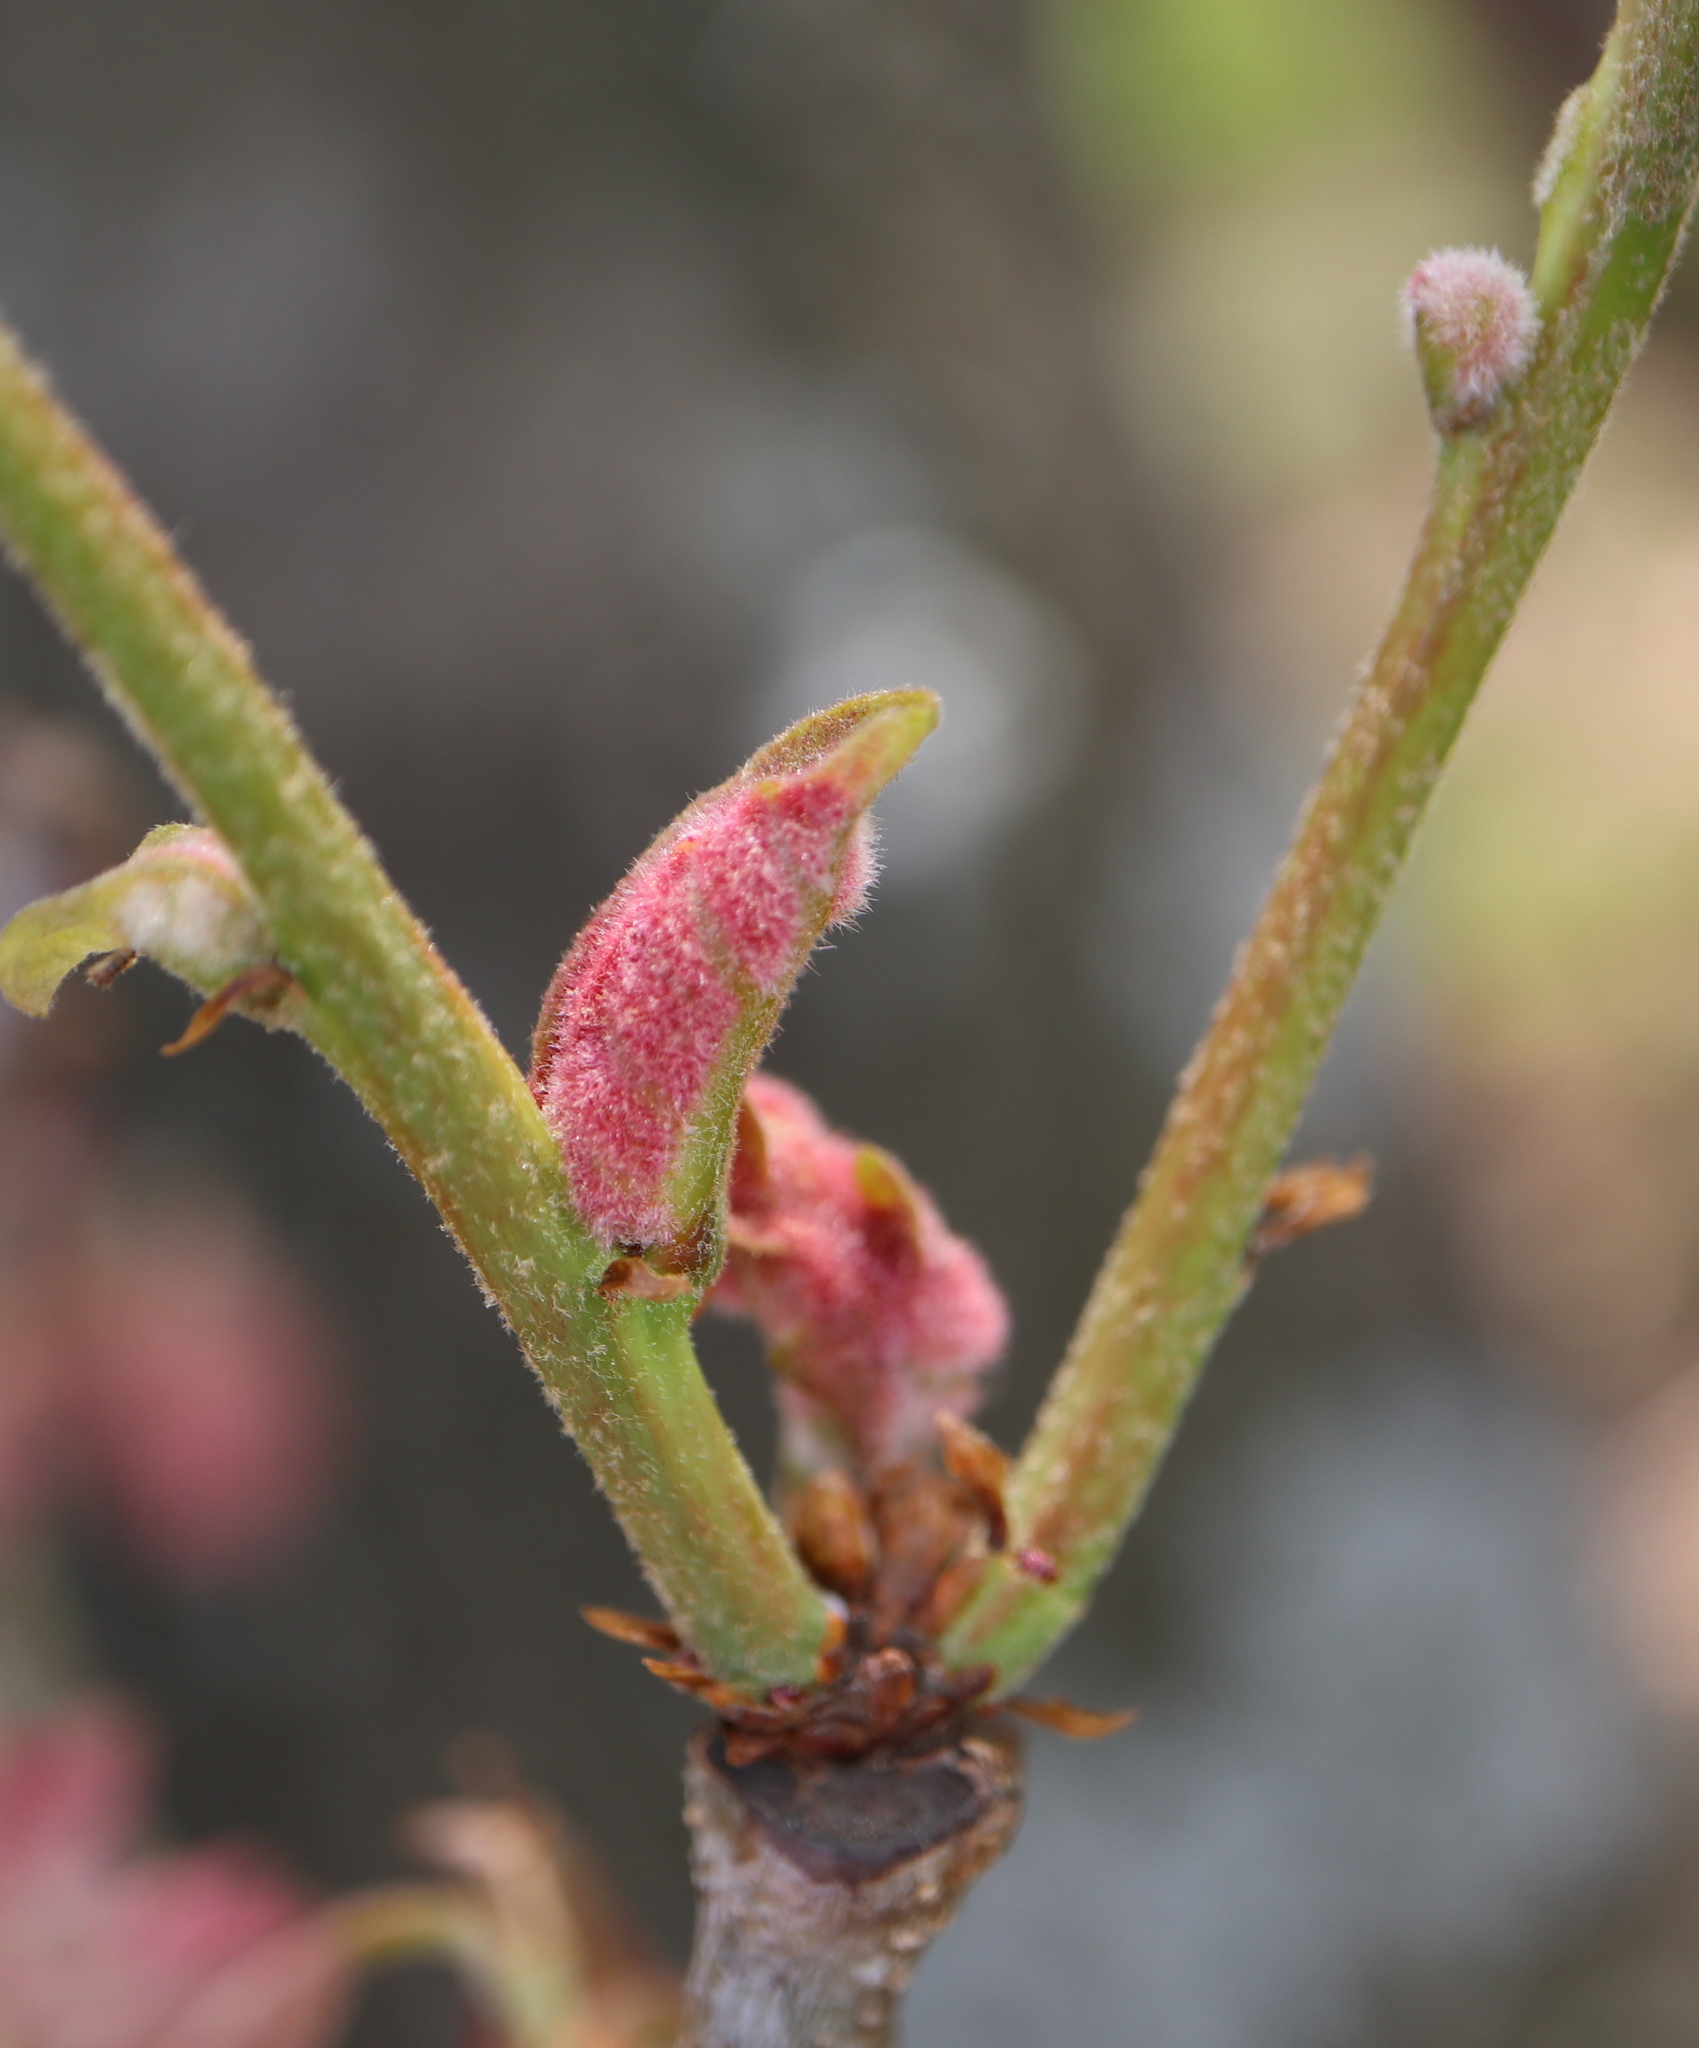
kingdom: Animalia
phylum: Arthropoda
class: Insecta
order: Diptera
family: Cecidomyiidae
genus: Macrodiplosis
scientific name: Macrodiplosis niveipila
